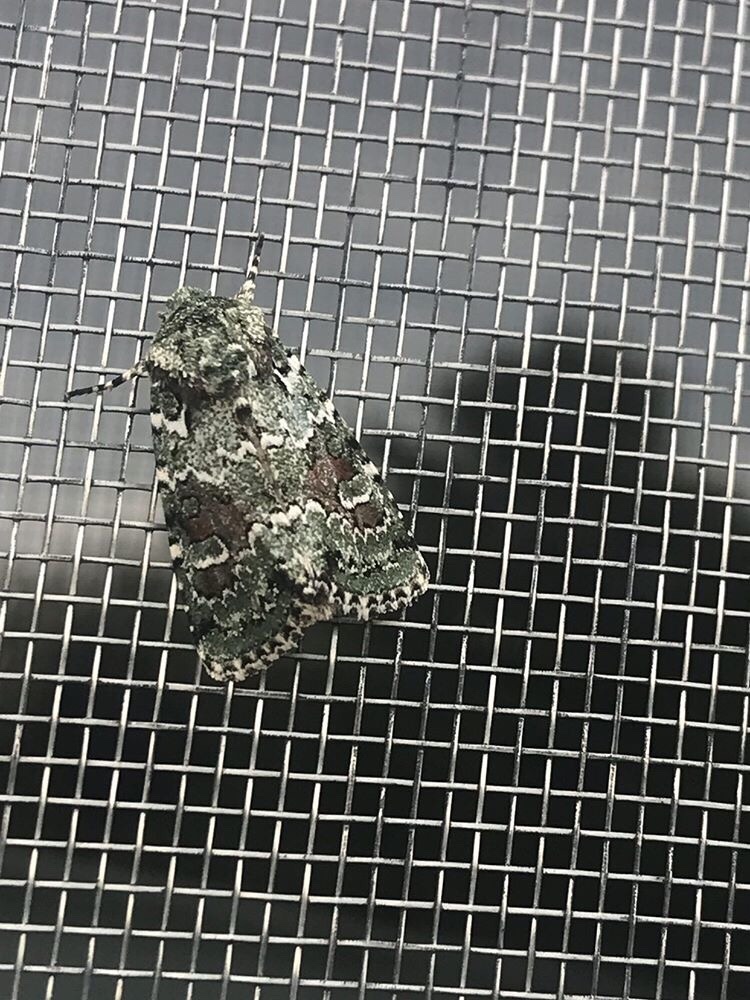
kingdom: Animalia
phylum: Arthropoda
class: Insecta
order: Lepidoptera
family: Noctuidae
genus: Lacinipolia
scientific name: Lacinipolia laudabilis
